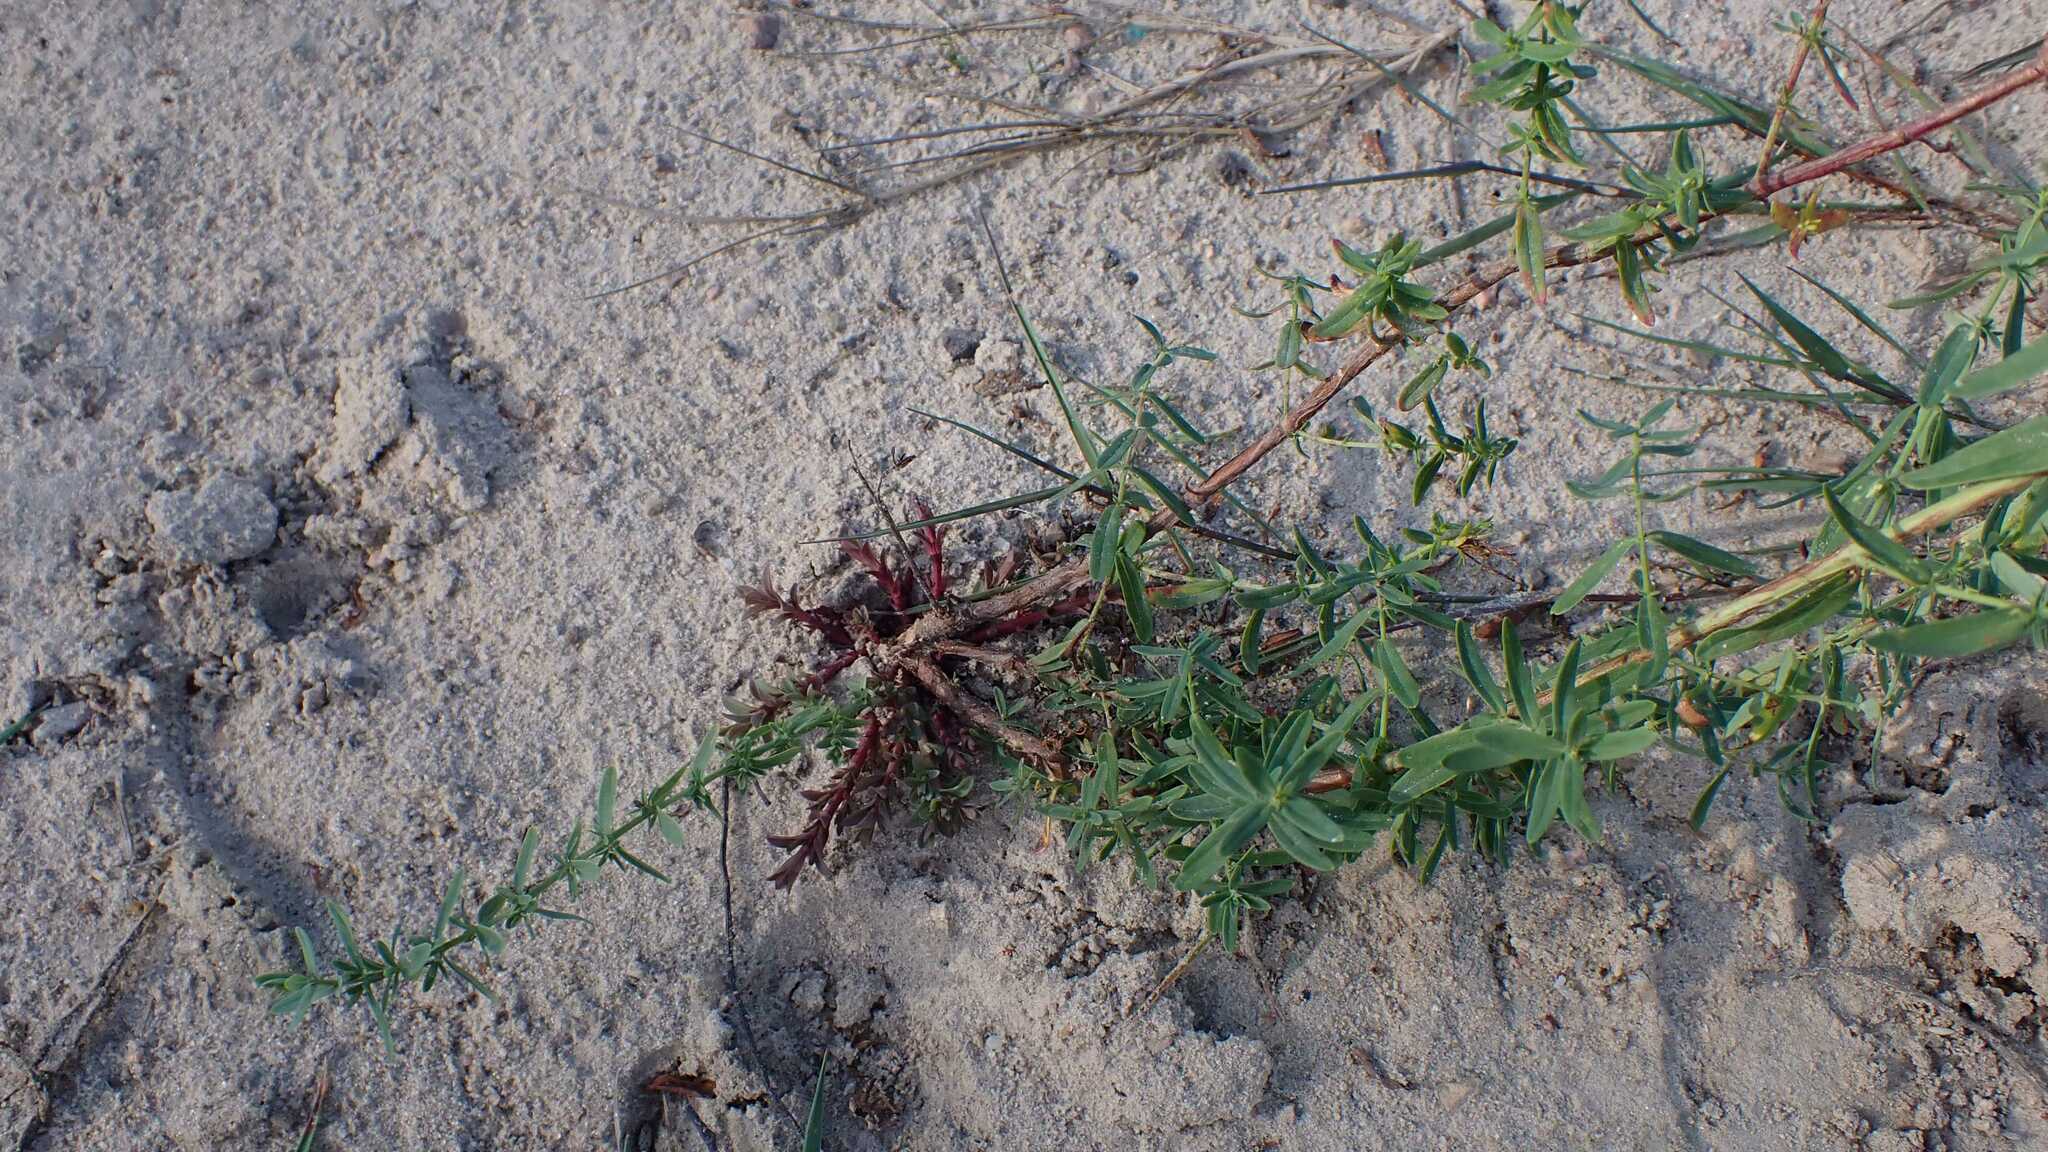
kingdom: Plantae
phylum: Tracheophyta
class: Magnoliopsida
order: Malpighiales
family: Hypericaceae
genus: Hypericum
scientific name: Hypericum perforatum
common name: Common st. johnswort
